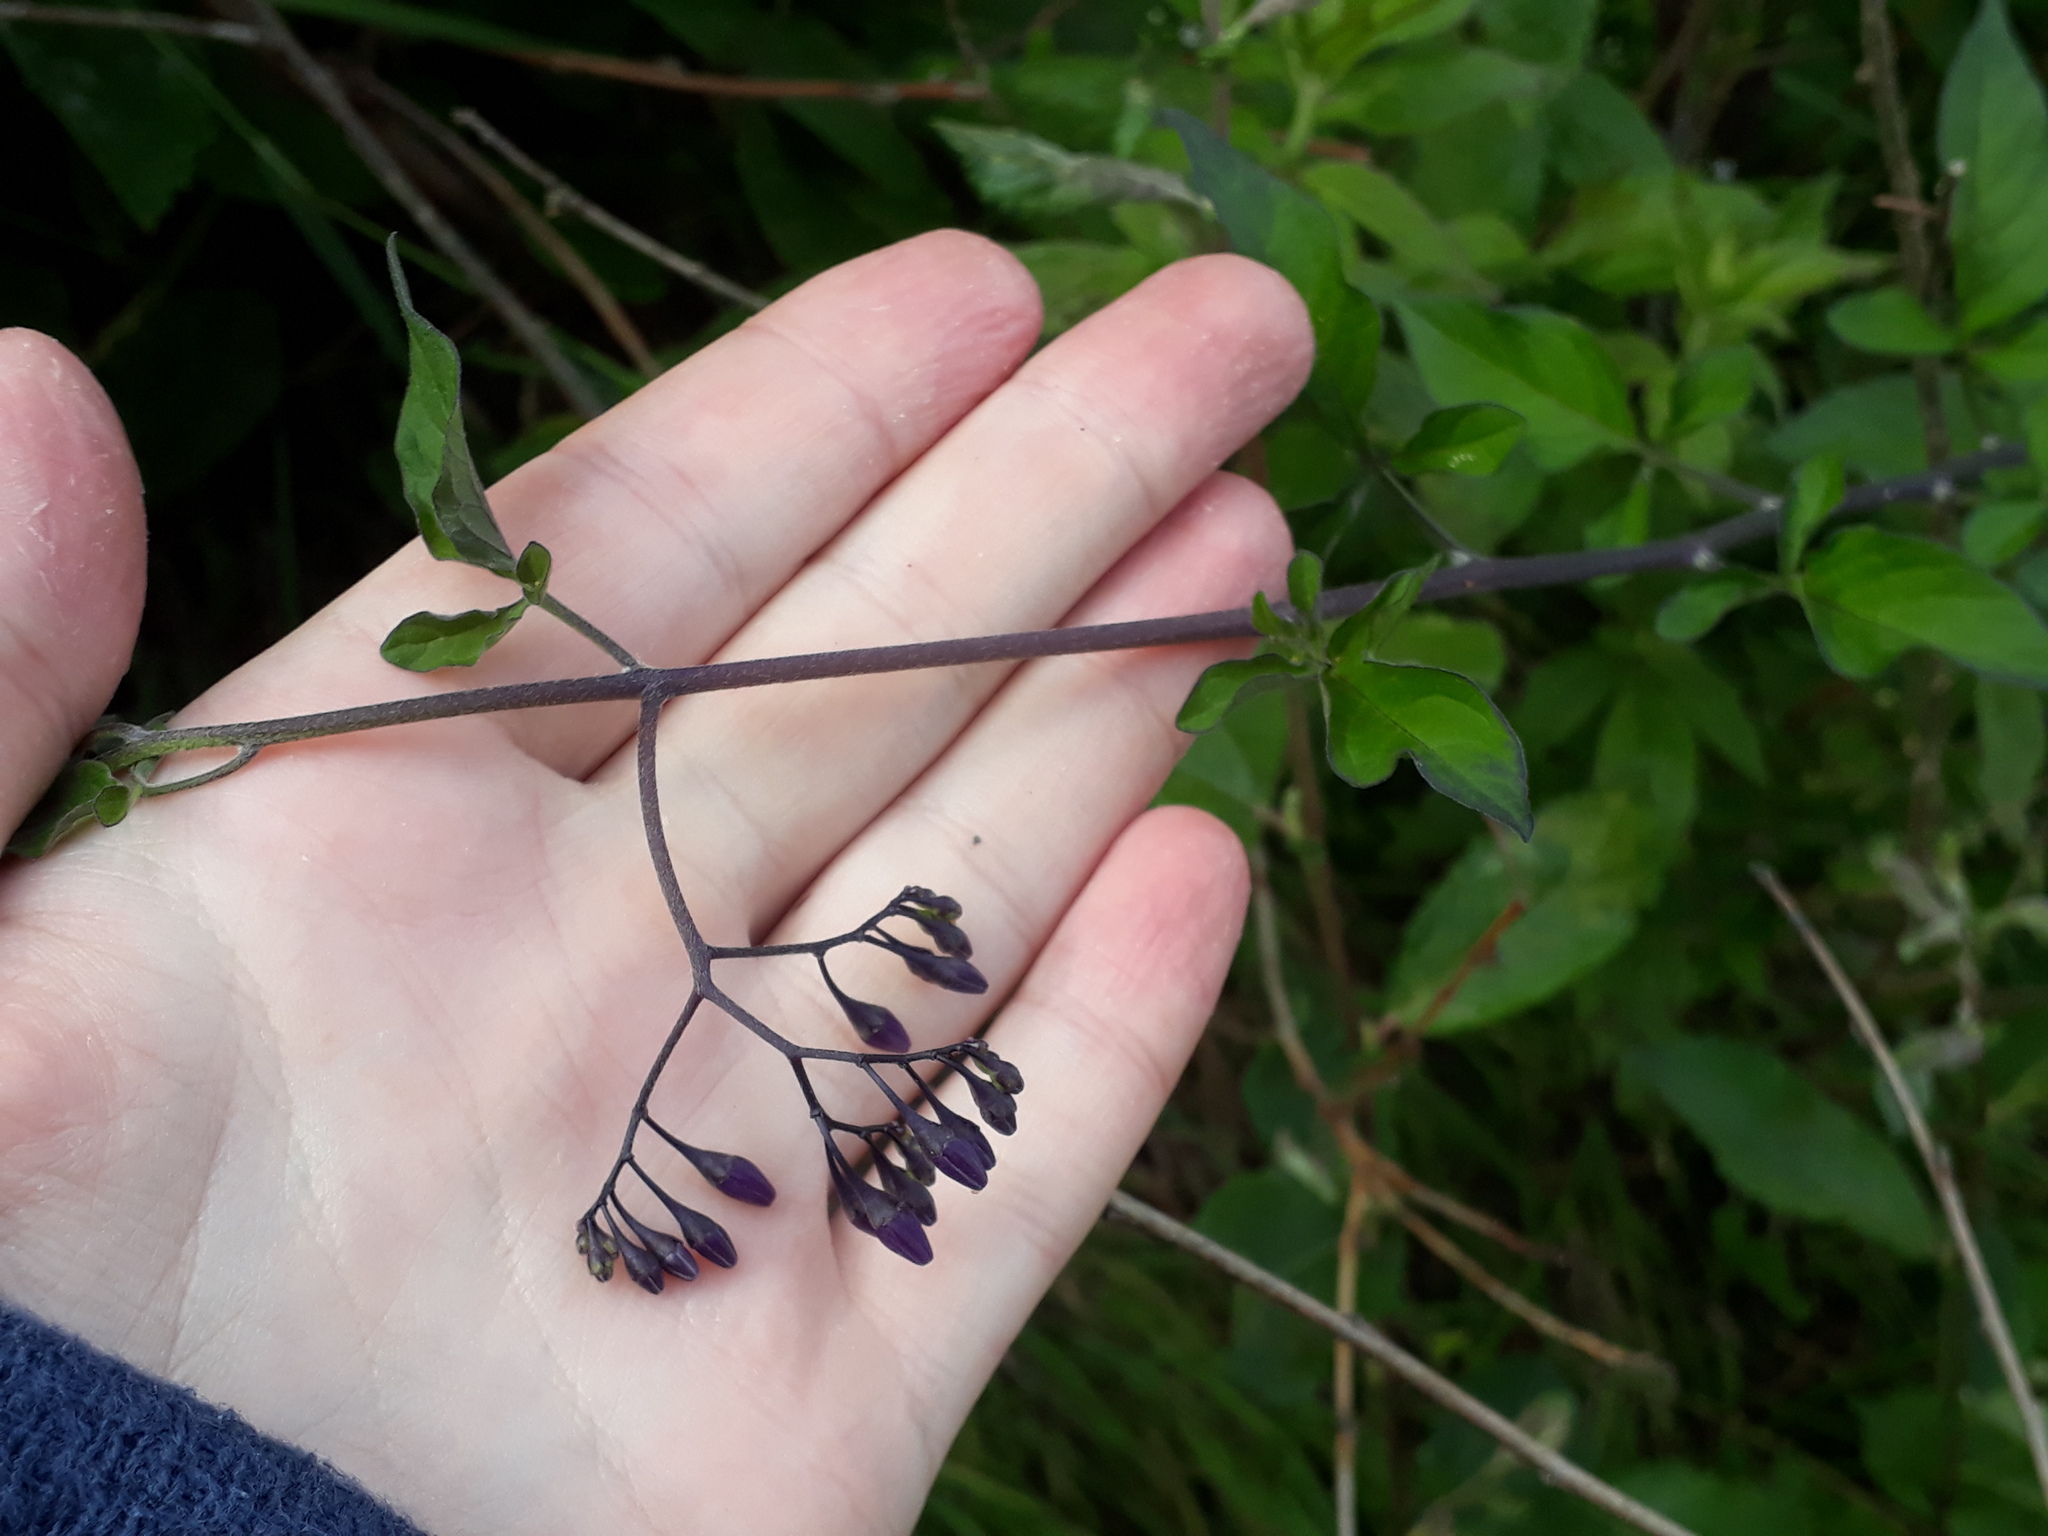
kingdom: Plantae
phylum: Tracheophyta
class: Magnoliopsida
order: Solanales
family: Solanaceae
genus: Solanum
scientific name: Solanum dulcamara
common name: Climbing nightshade
